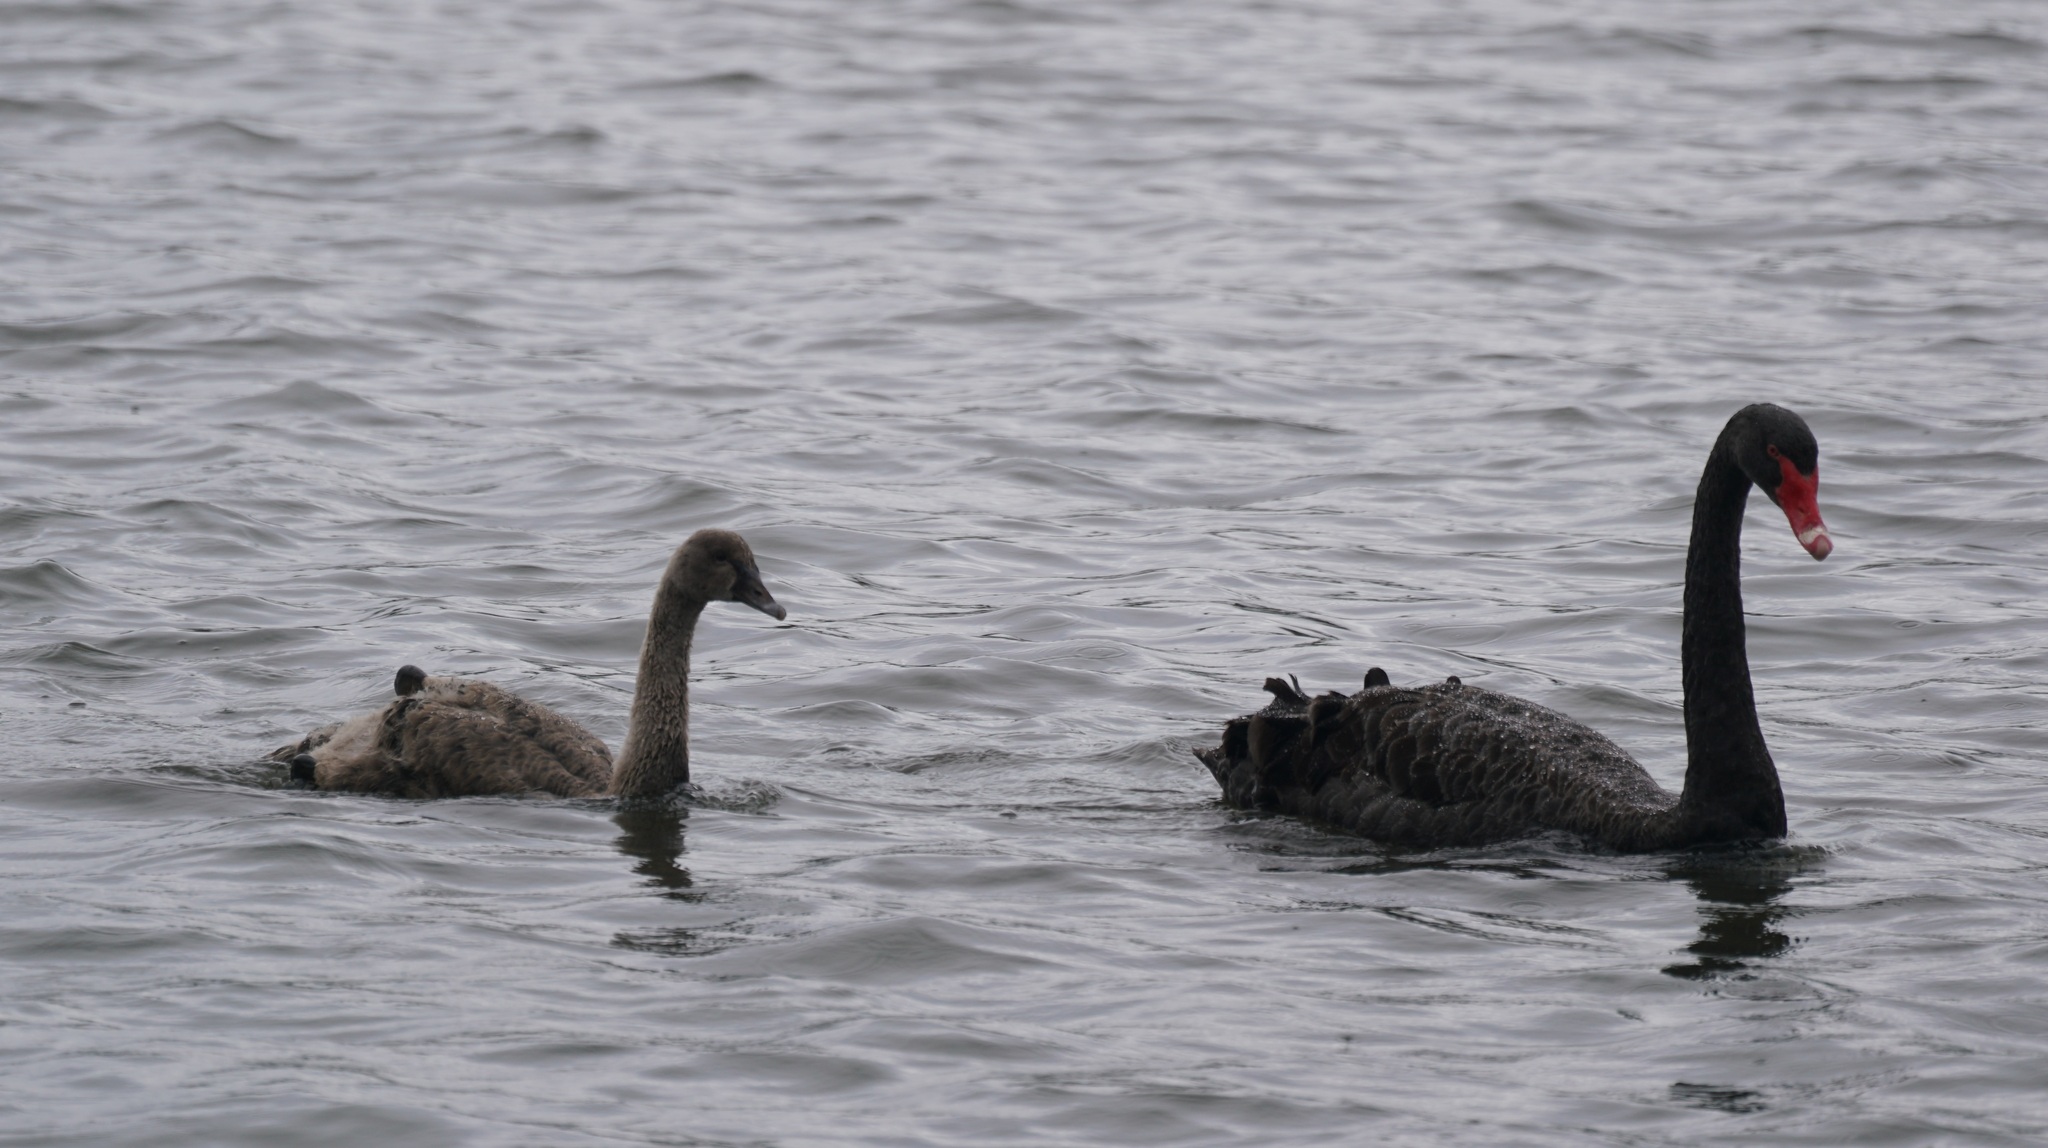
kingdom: Animalia
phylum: Chordata
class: Aves
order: Anseriformes
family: Anatidae
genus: Cygnus
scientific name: Cygnus atratus
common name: Black swan
